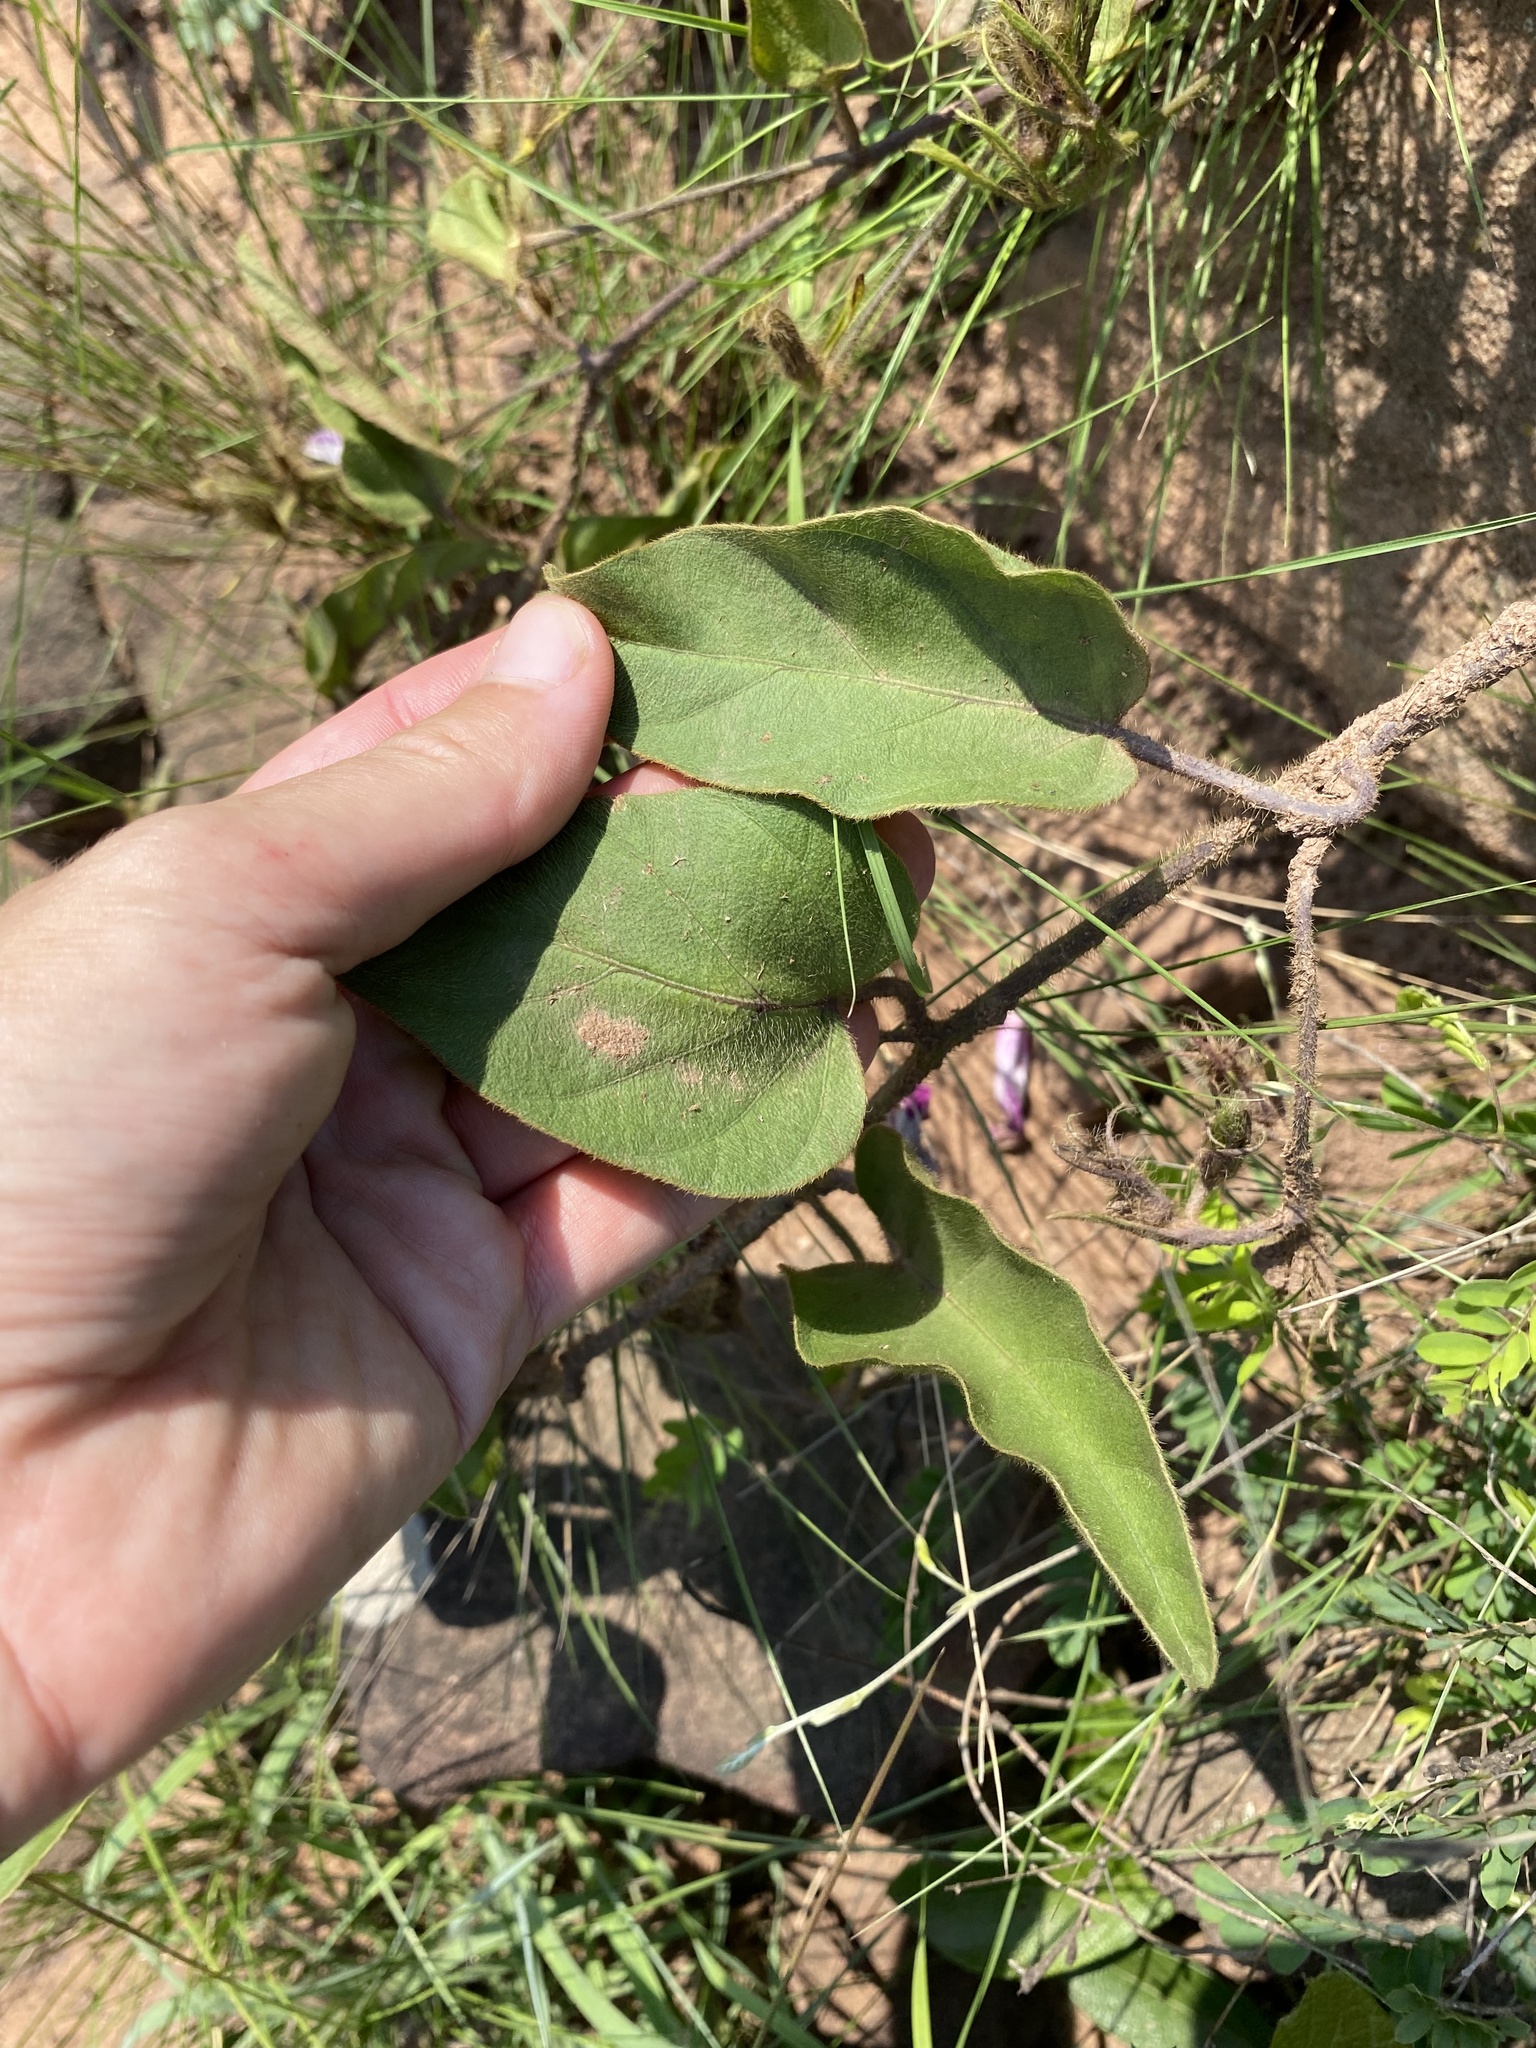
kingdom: Plantae
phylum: Tracheophyta
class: Magnoliopsida
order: Solanales
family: Convolvulaceae
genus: Ipomoea
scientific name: Ipomoea oblongata
